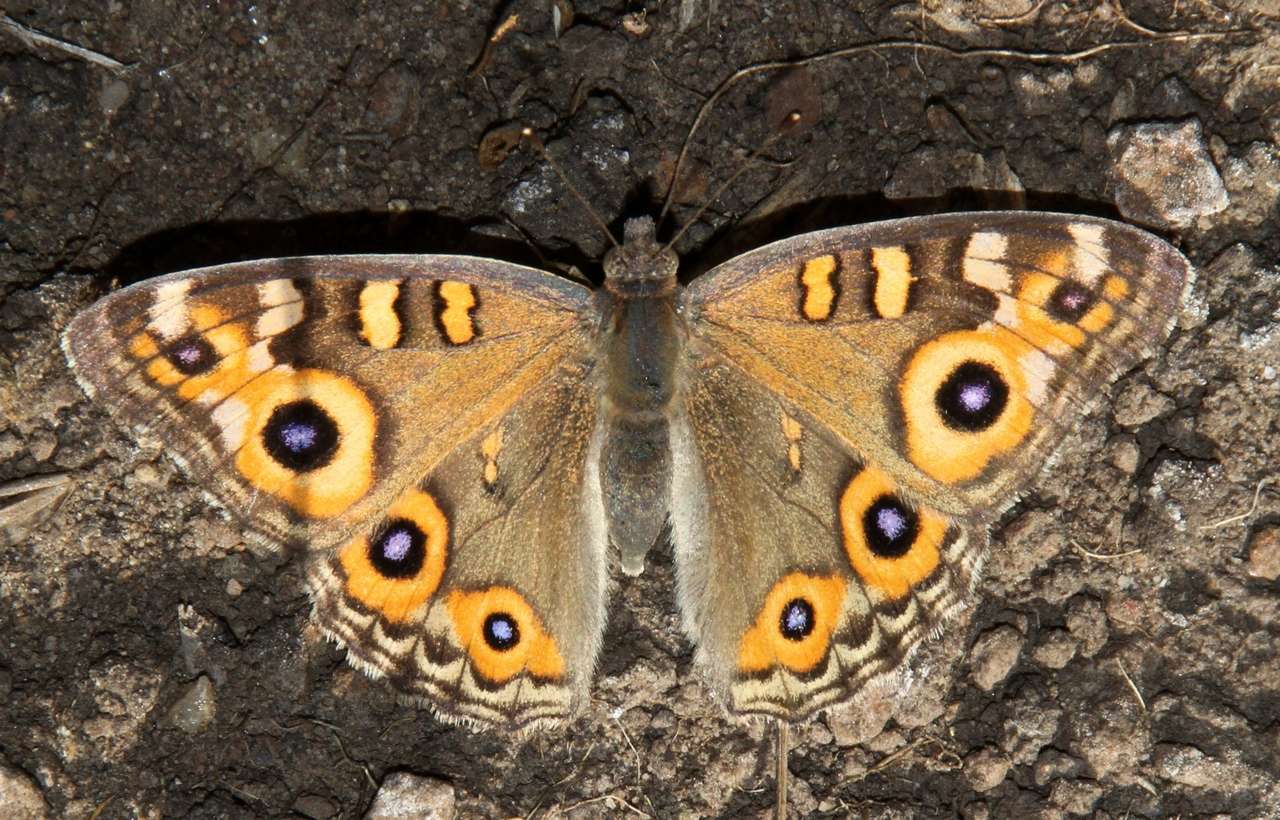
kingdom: Animalia
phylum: Arthropoda
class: Insecta
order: Lepidoptera
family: Nymphalidae
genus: Junonia
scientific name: Junonia villida
